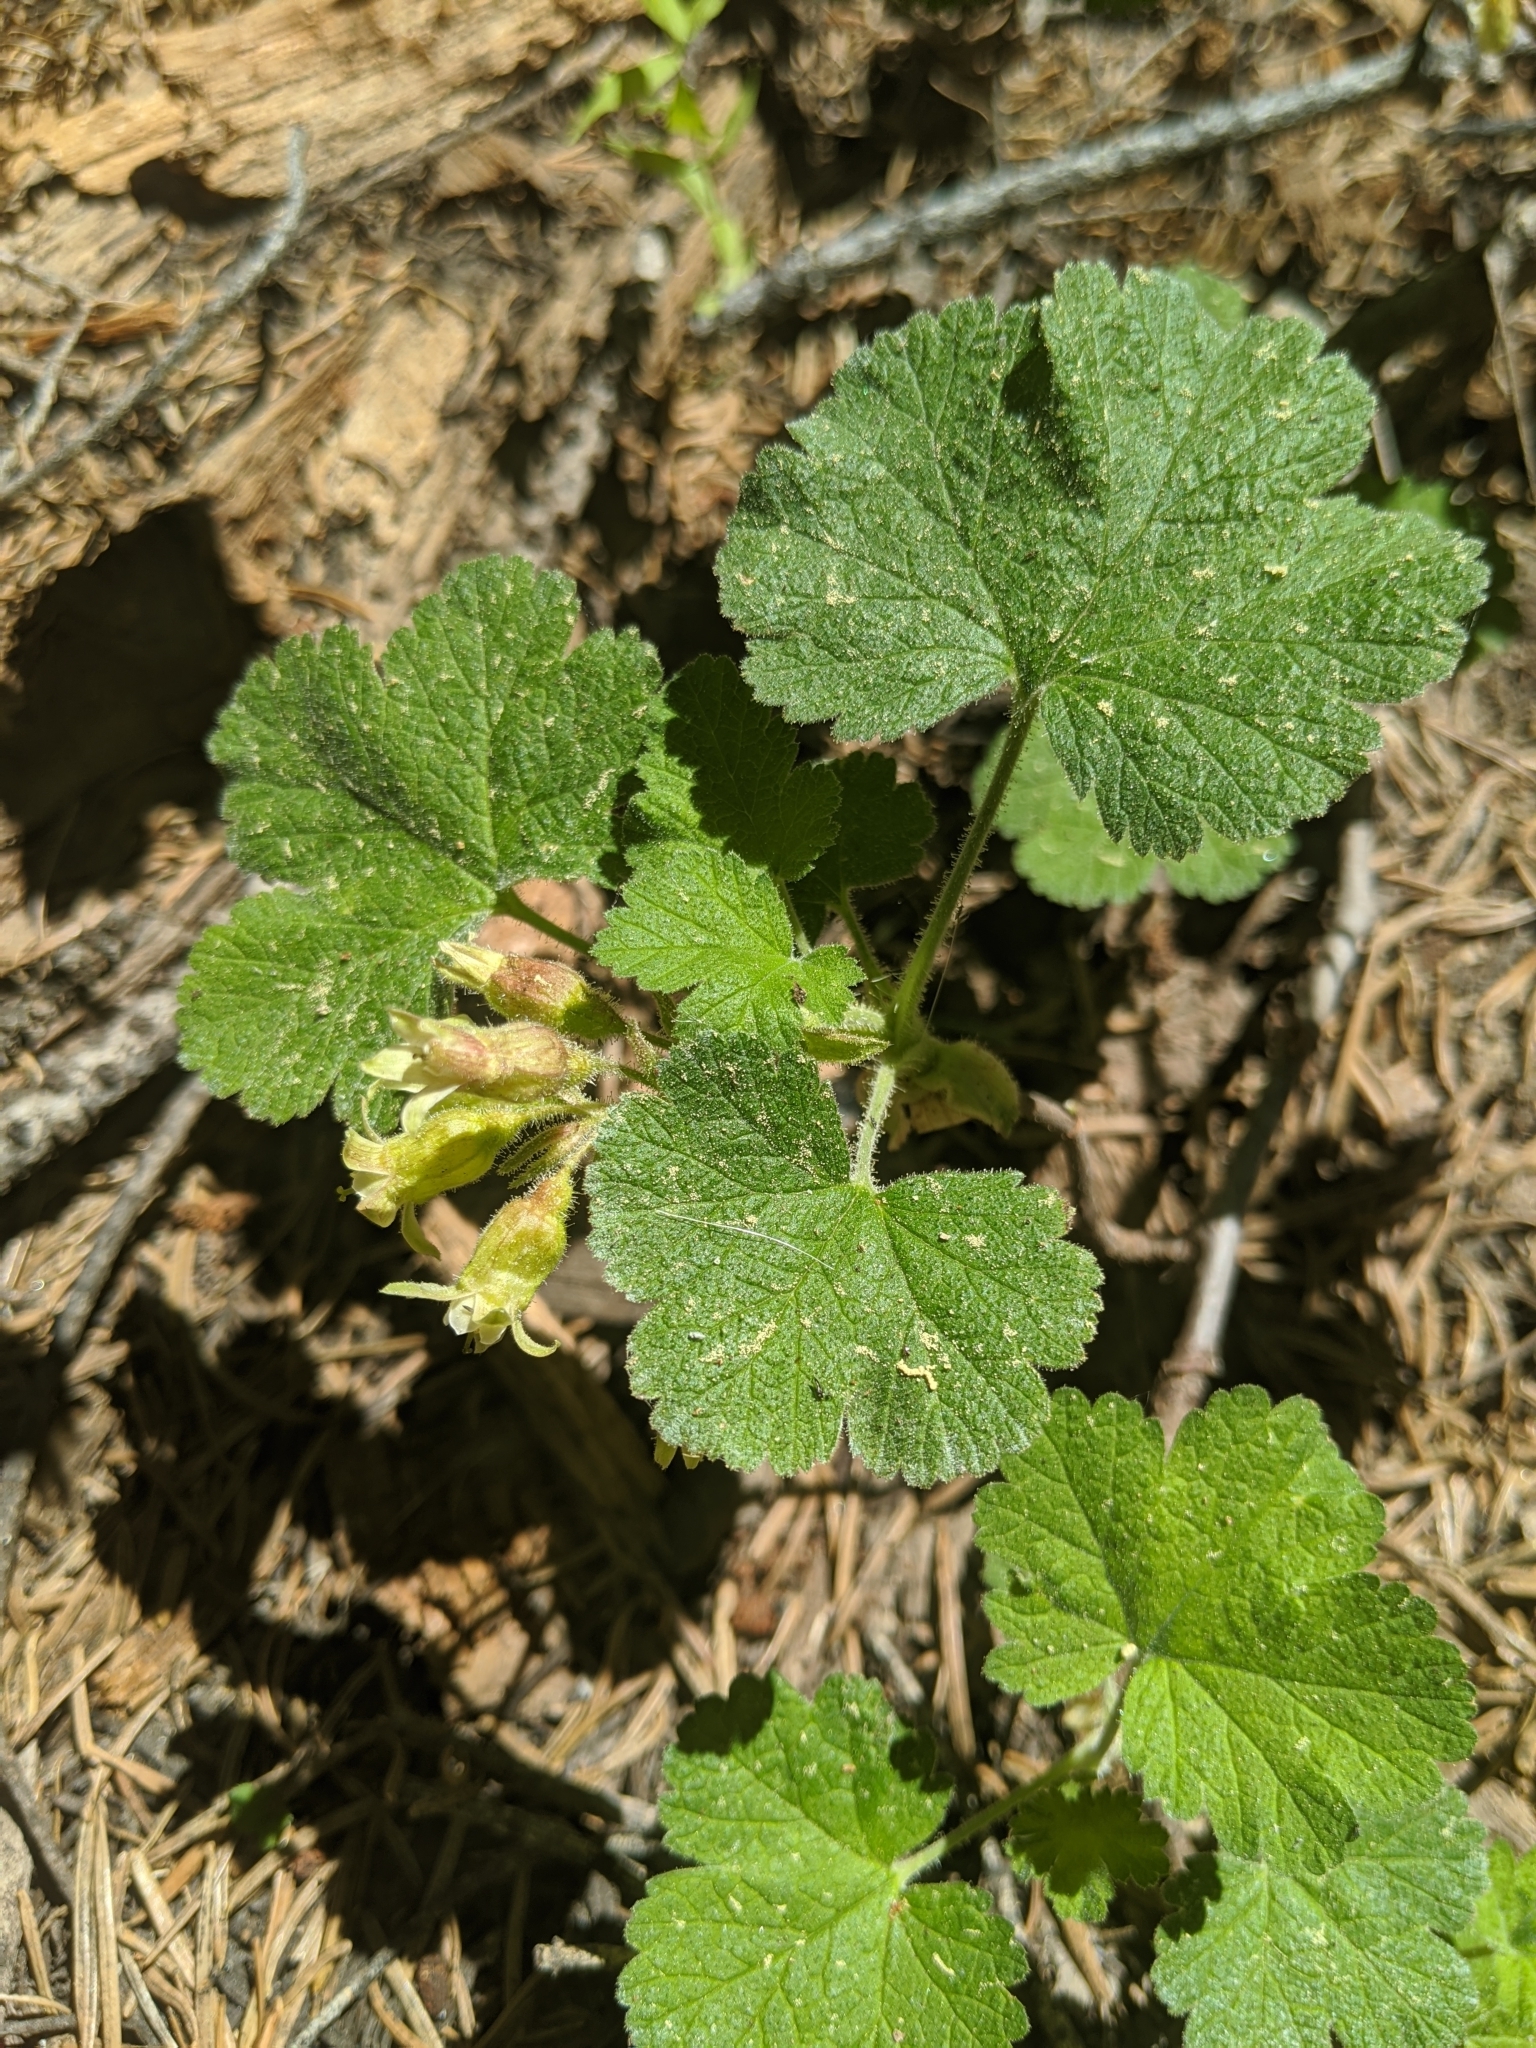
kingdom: Plantae
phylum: Tracheophyta
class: Magnoliopsida
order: Saxifragales
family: Grossulariaceae
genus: Ribes
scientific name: Ribes viscosissimum
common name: Sticky currant
